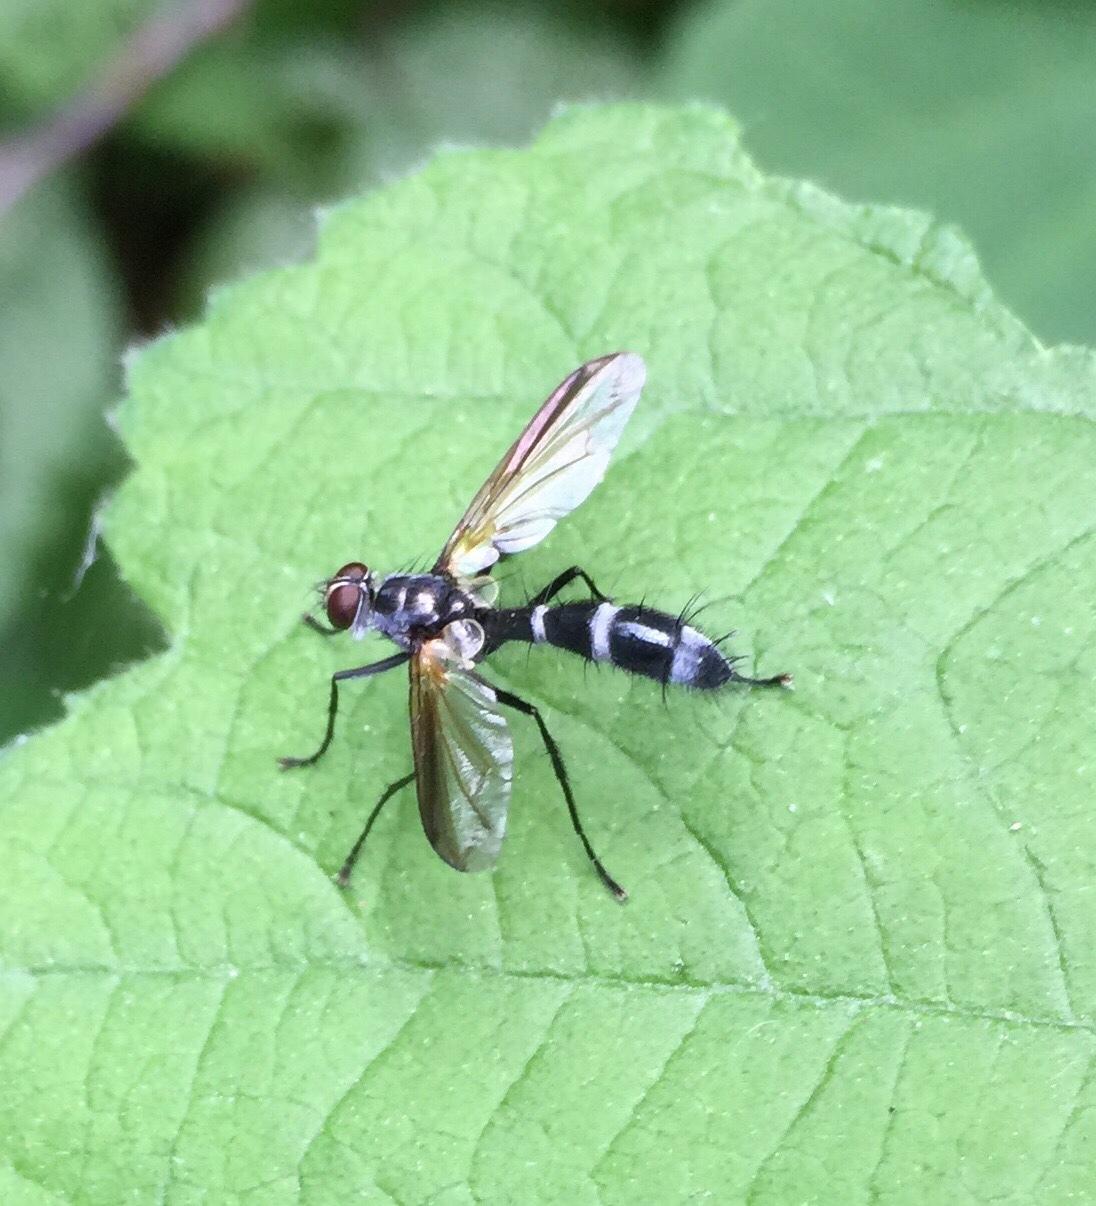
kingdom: Animalia
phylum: Arthropoda
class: Insecta
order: Diptera
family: Tachinidae
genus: Cordyligaster
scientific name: Cordyligaster septentrionalis
